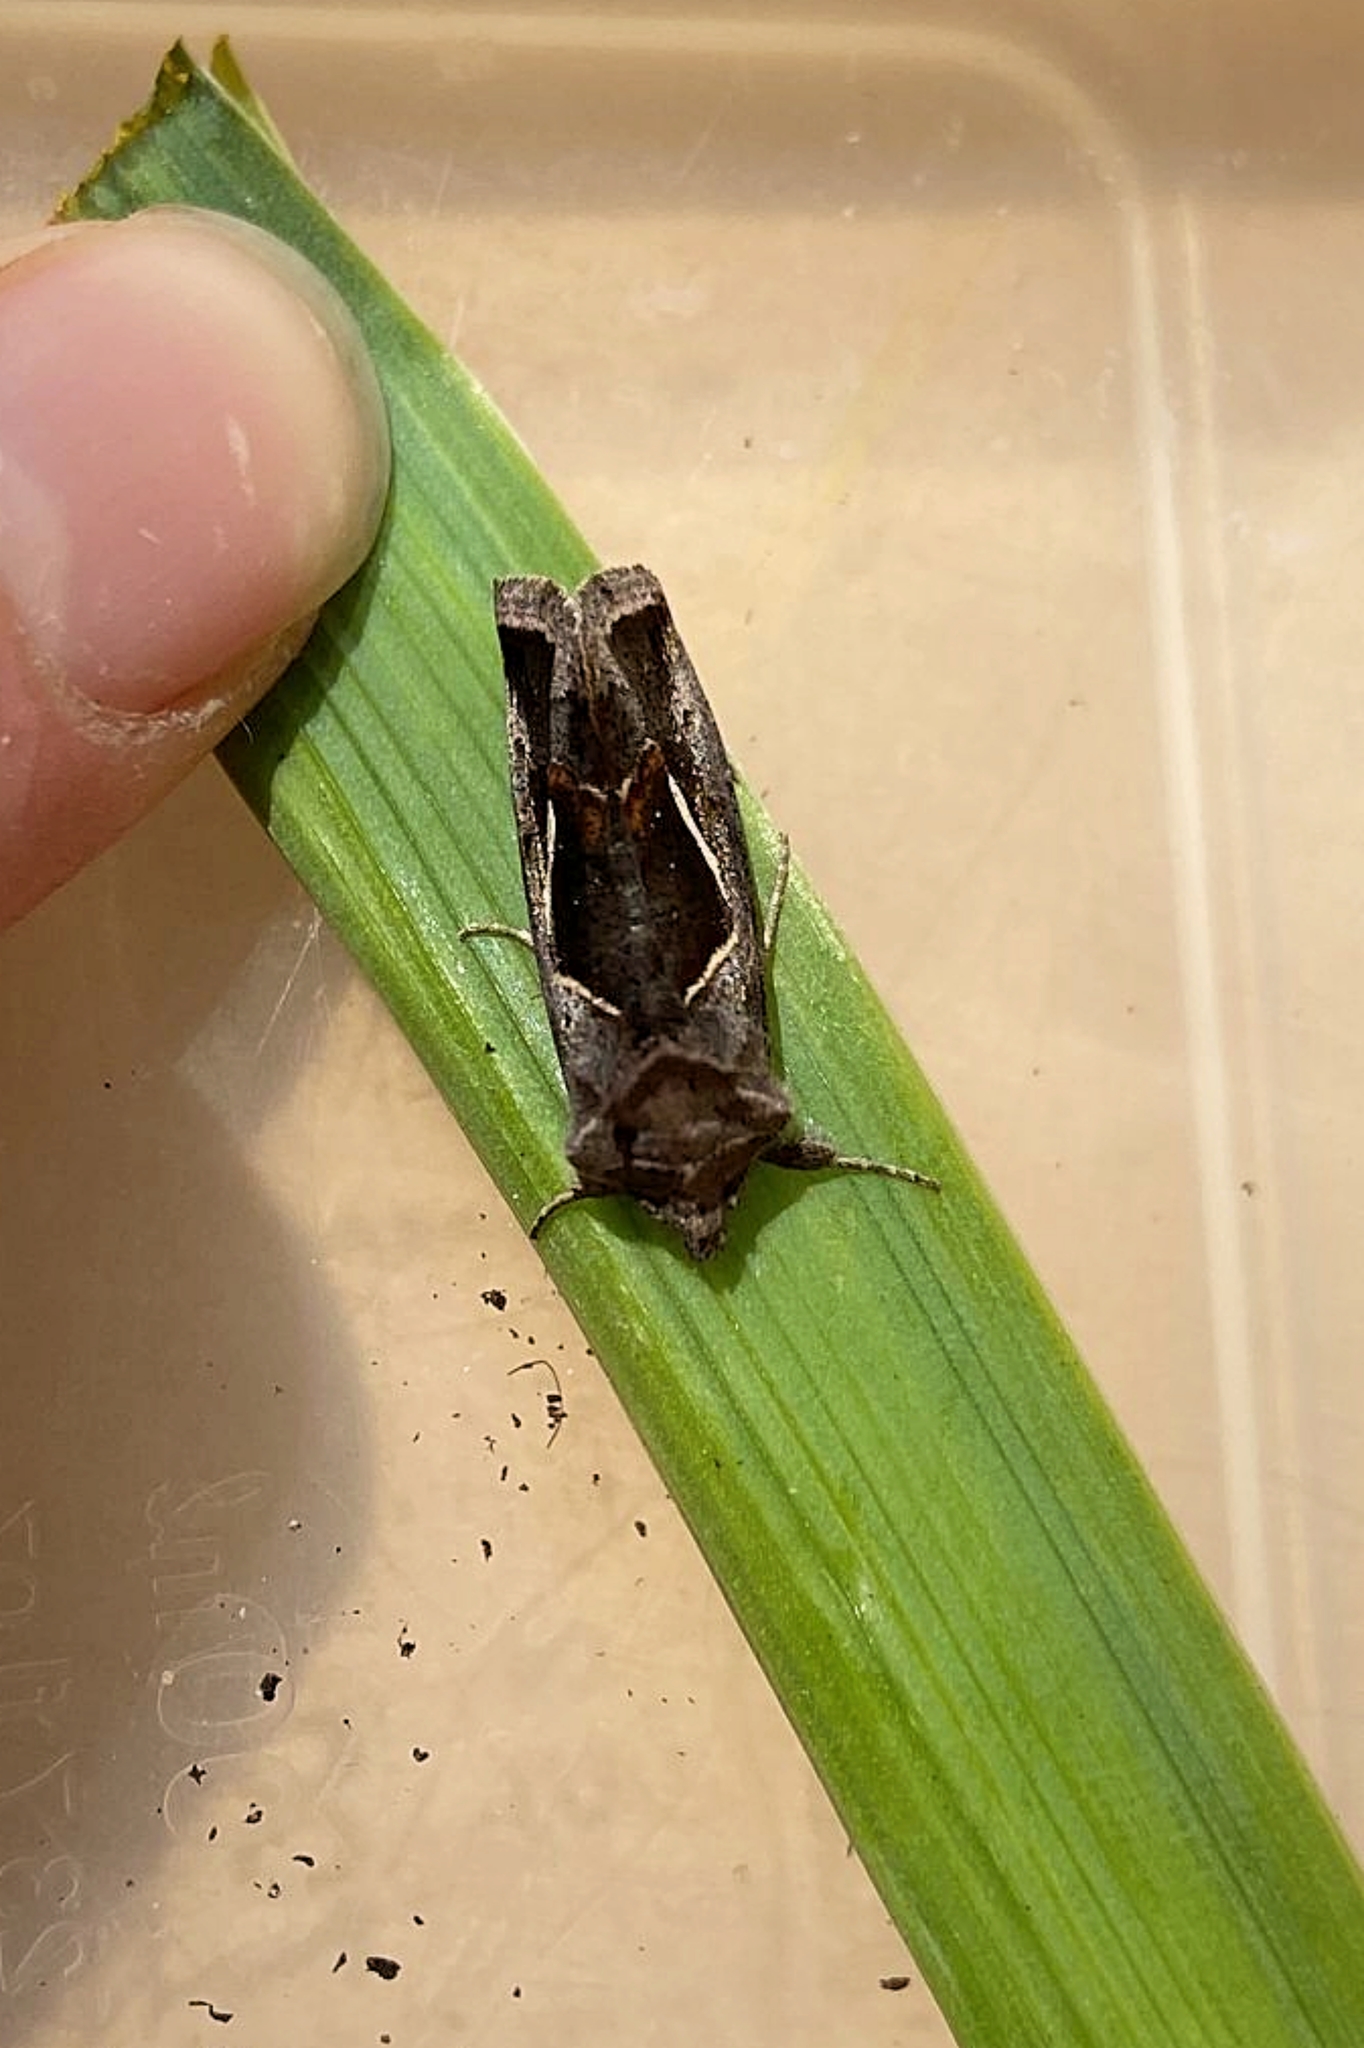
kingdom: Animalia
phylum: Arthropoda
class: Insecta
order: Lepidoptera
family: Noctuidae
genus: Macdunnoughia
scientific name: Macdunnoughia confusa
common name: Dewick's plusia
